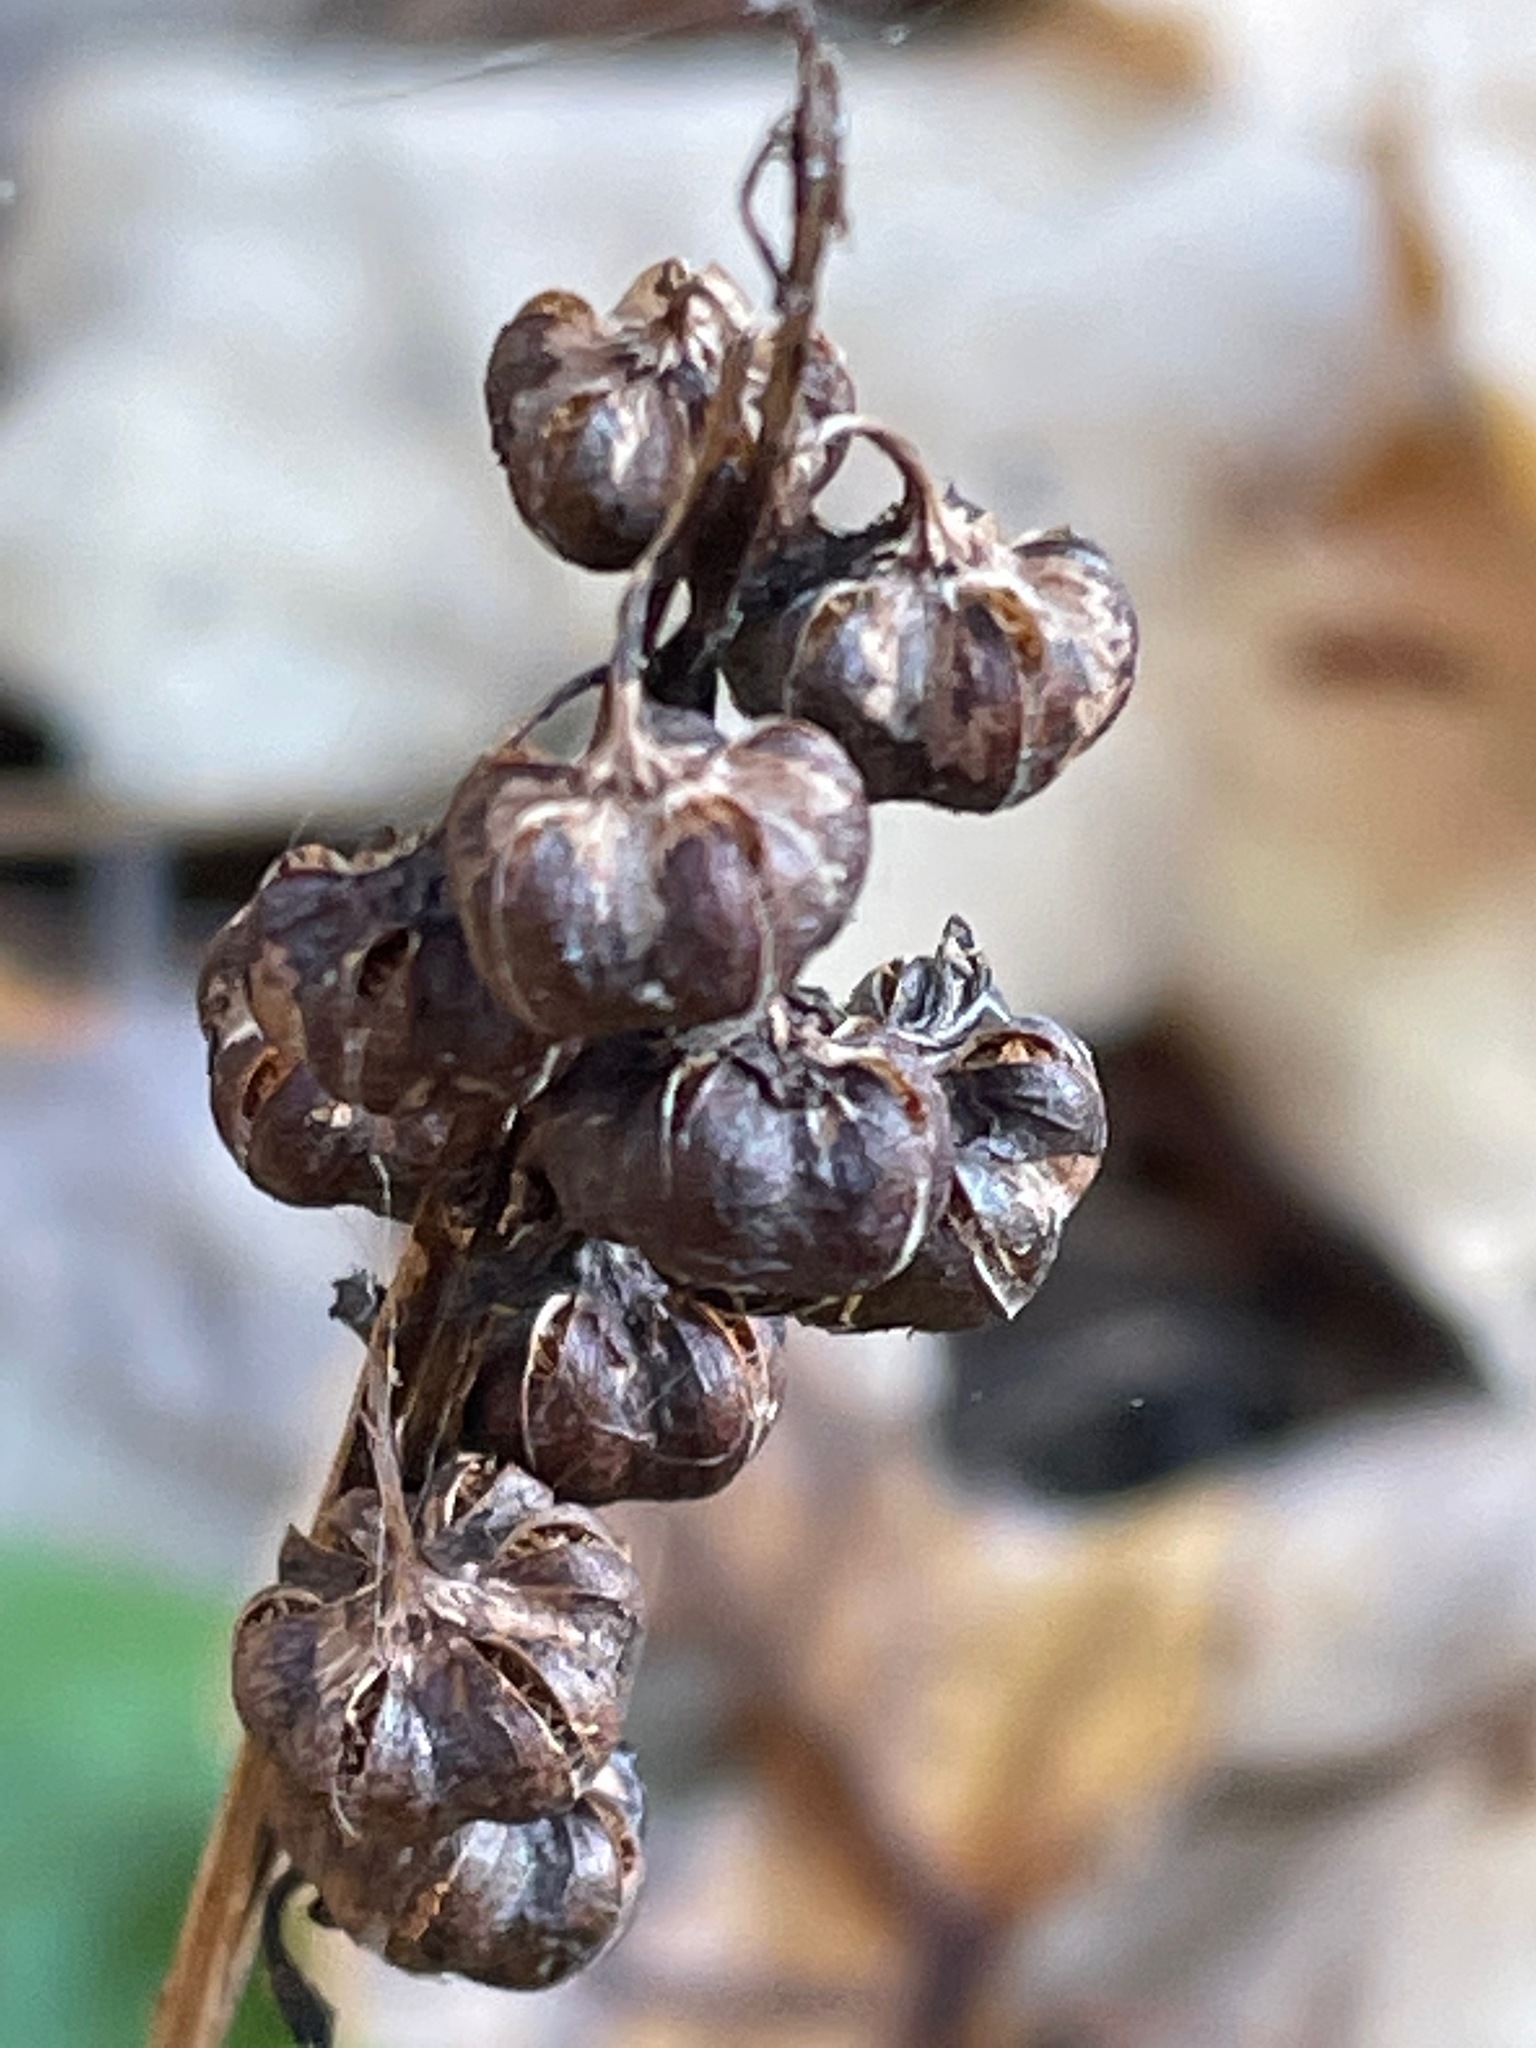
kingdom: Plantae
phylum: Tracheophyta
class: Magnoliopsida
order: Ericales
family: Ericaceae
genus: Pyrola
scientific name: Pyrola elliptica
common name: Shinleaf
